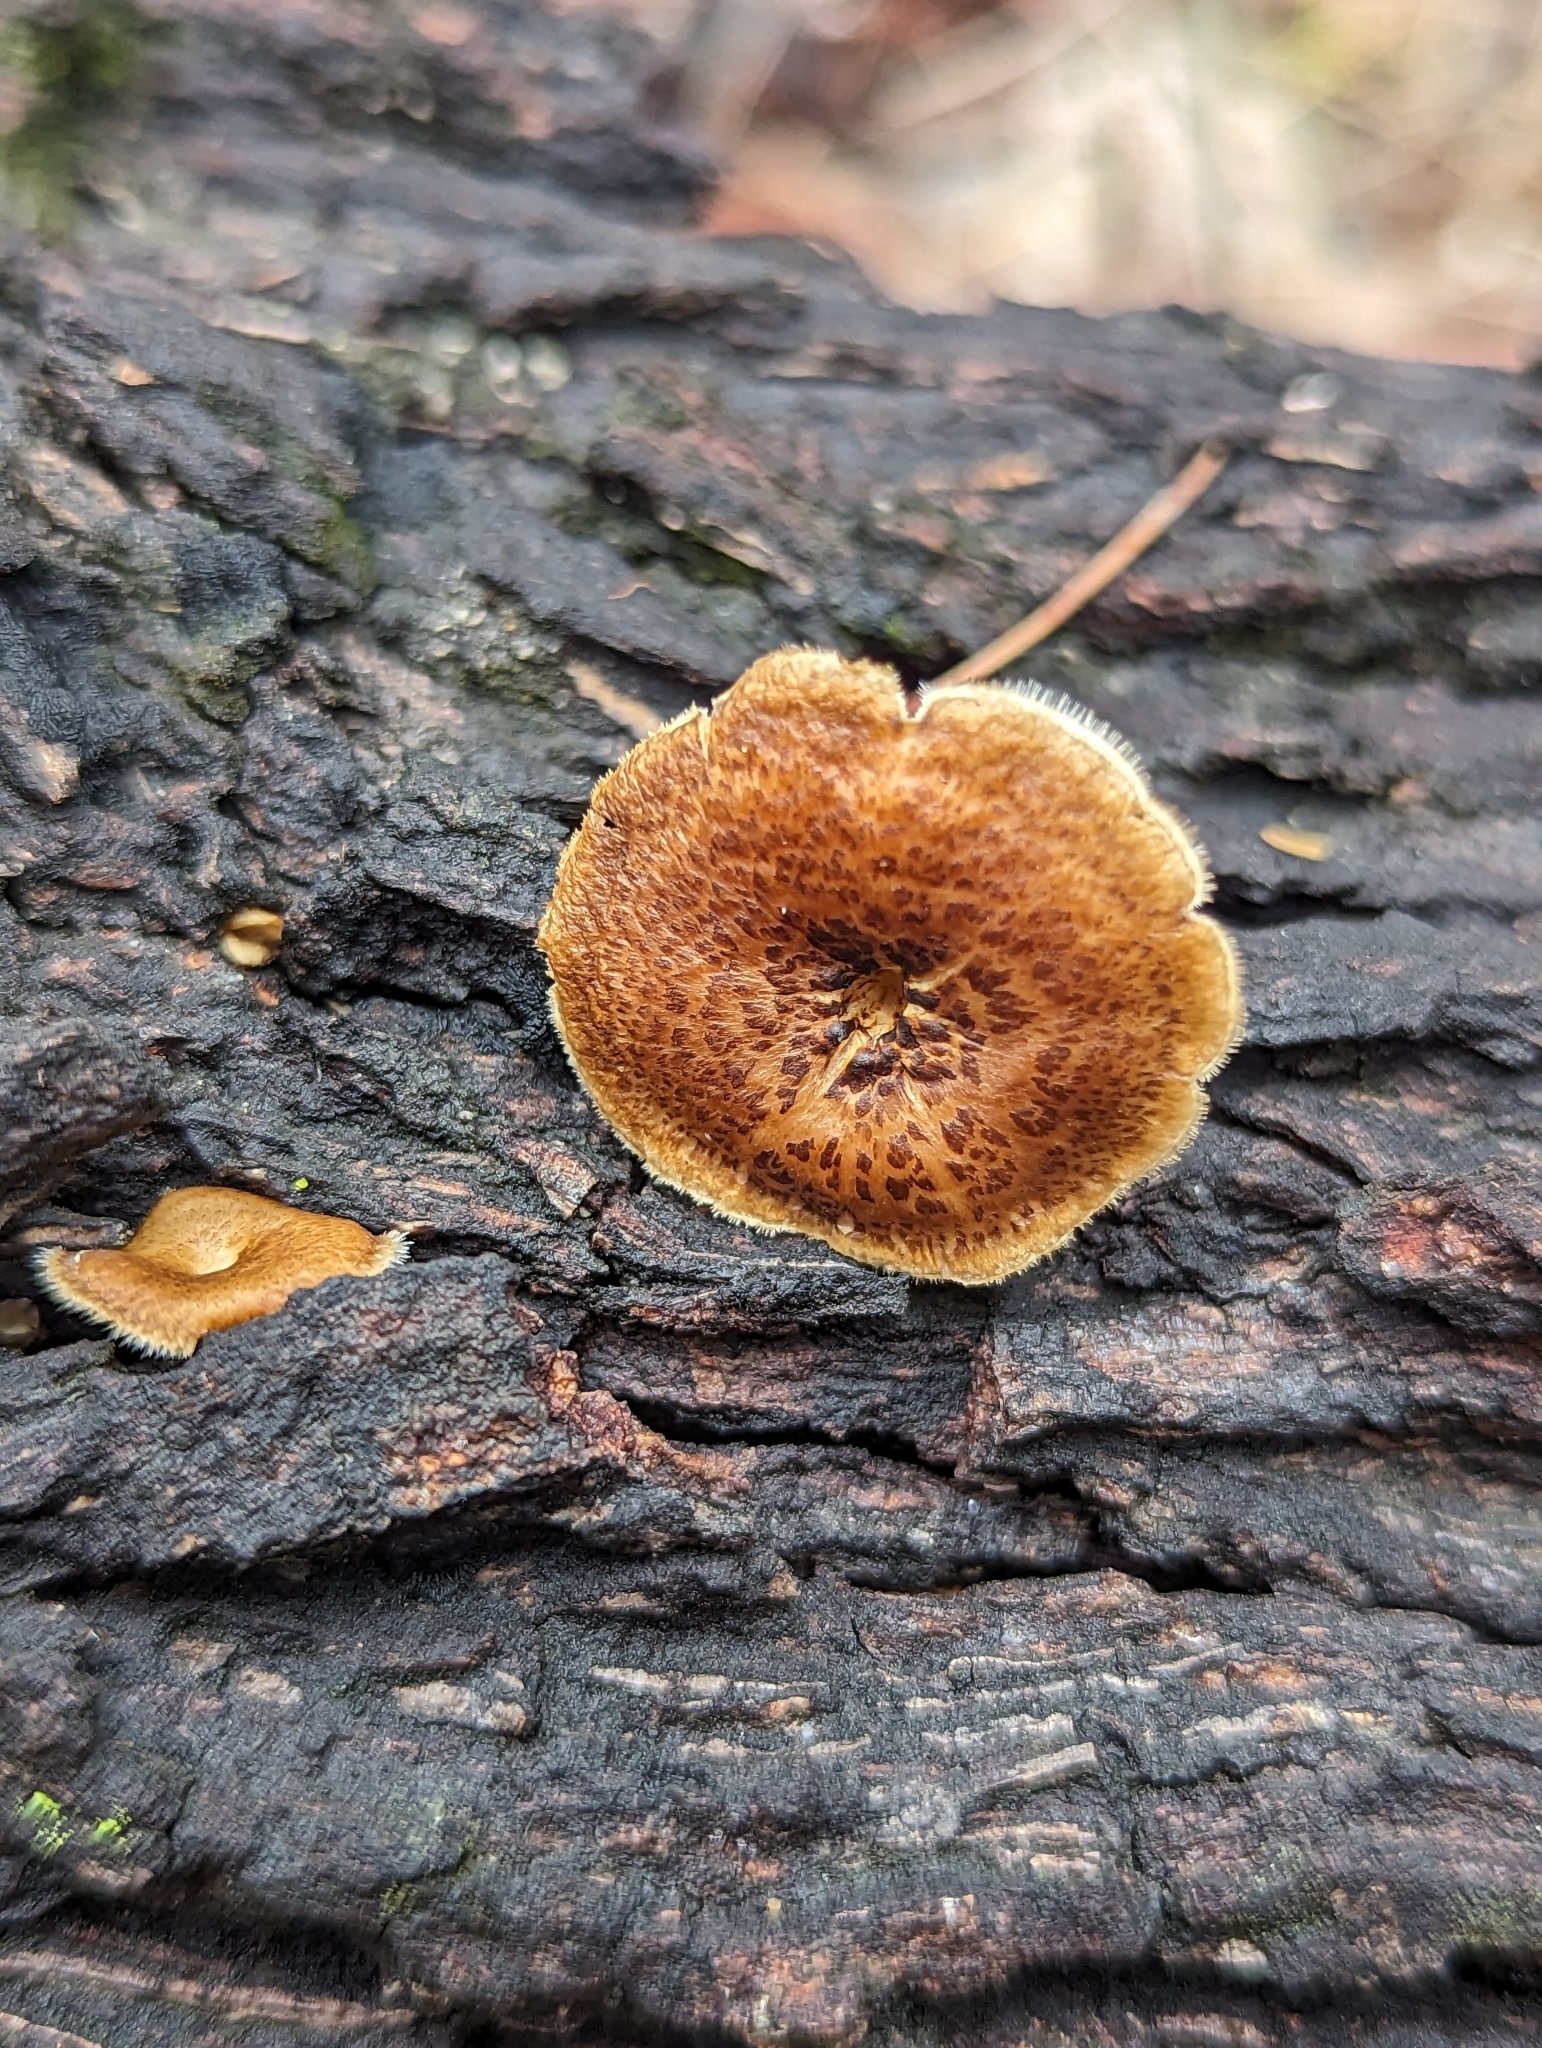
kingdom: Fungi
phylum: Basidiomycota
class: Agaricomycetes
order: Polyporales
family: Polyporaceae
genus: Lentinus
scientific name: Lentinus arcularius
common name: Spring polypore
